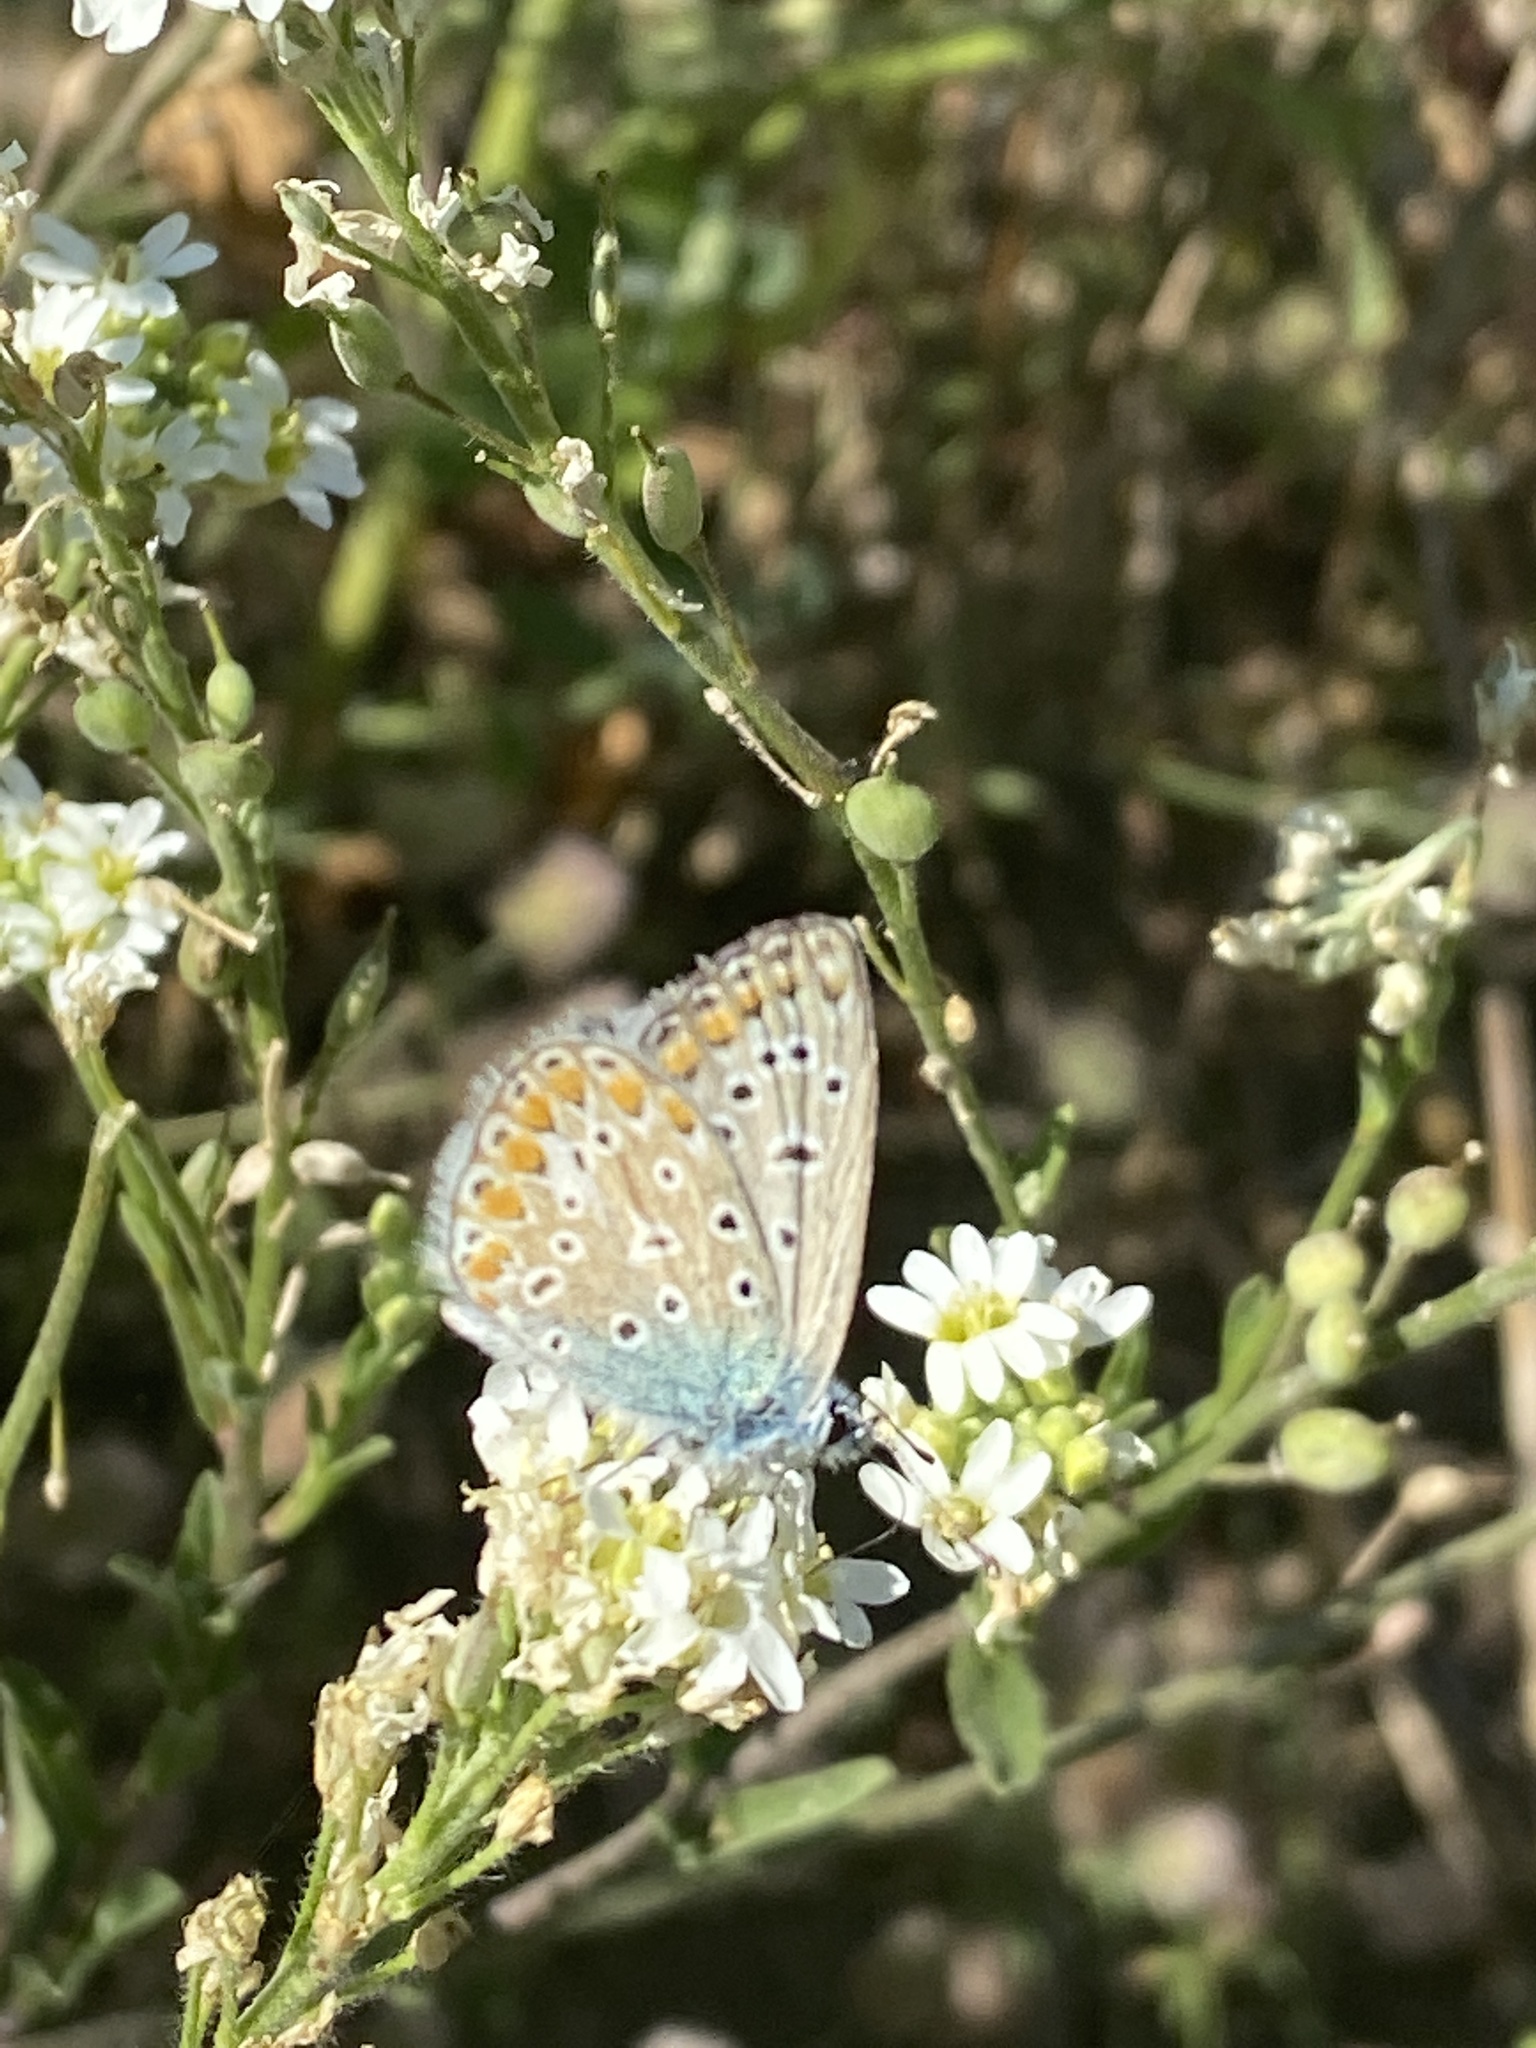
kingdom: Animalia
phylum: Arthropoda
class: Insecta
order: Lepidoptera
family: Lycaenidae
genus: Polyommatus
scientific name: Polyommatus icarus
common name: Common blue
